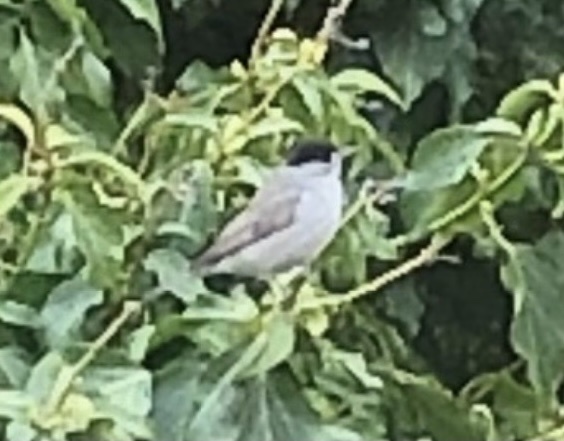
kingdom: Animalia
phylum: Chordata
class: Aves
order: Passeriformes
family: Sylviidae
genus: Sylvia
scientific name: Sylvia atricapilla
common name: Eurasian blackcap
